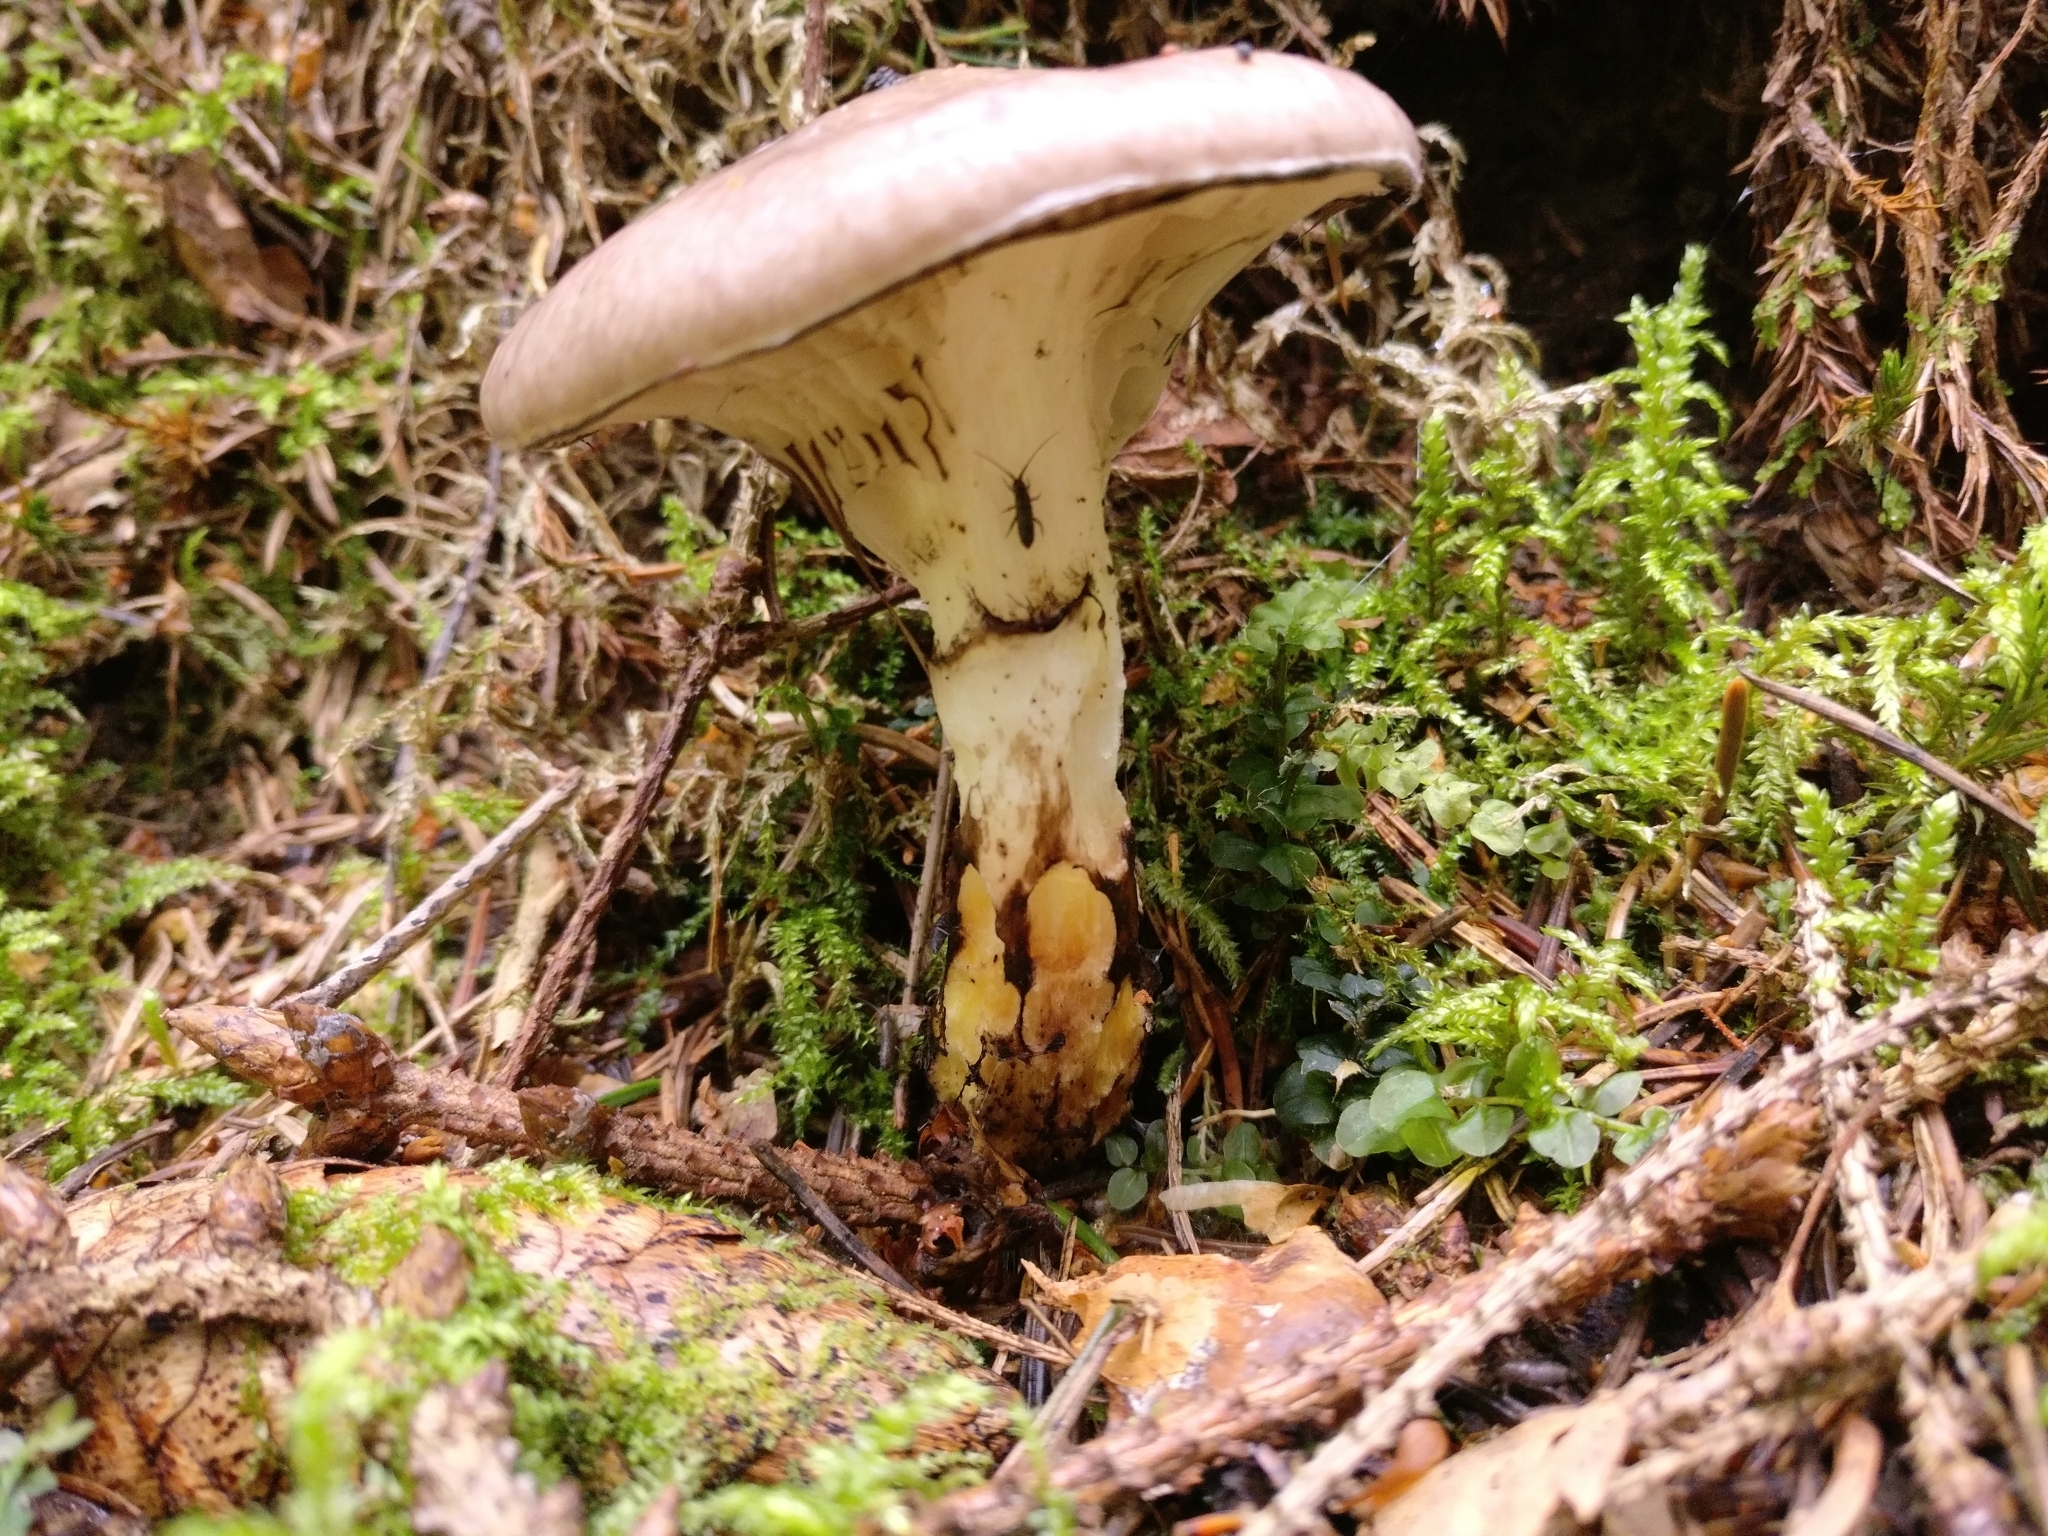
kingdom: Fungi
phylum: Basidiomycota
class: Agaricomycetes
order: Boletales
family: Gomphidiaceae
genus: Gomphidius
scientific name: Gomphidius glutinosus
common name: Slimy spike
